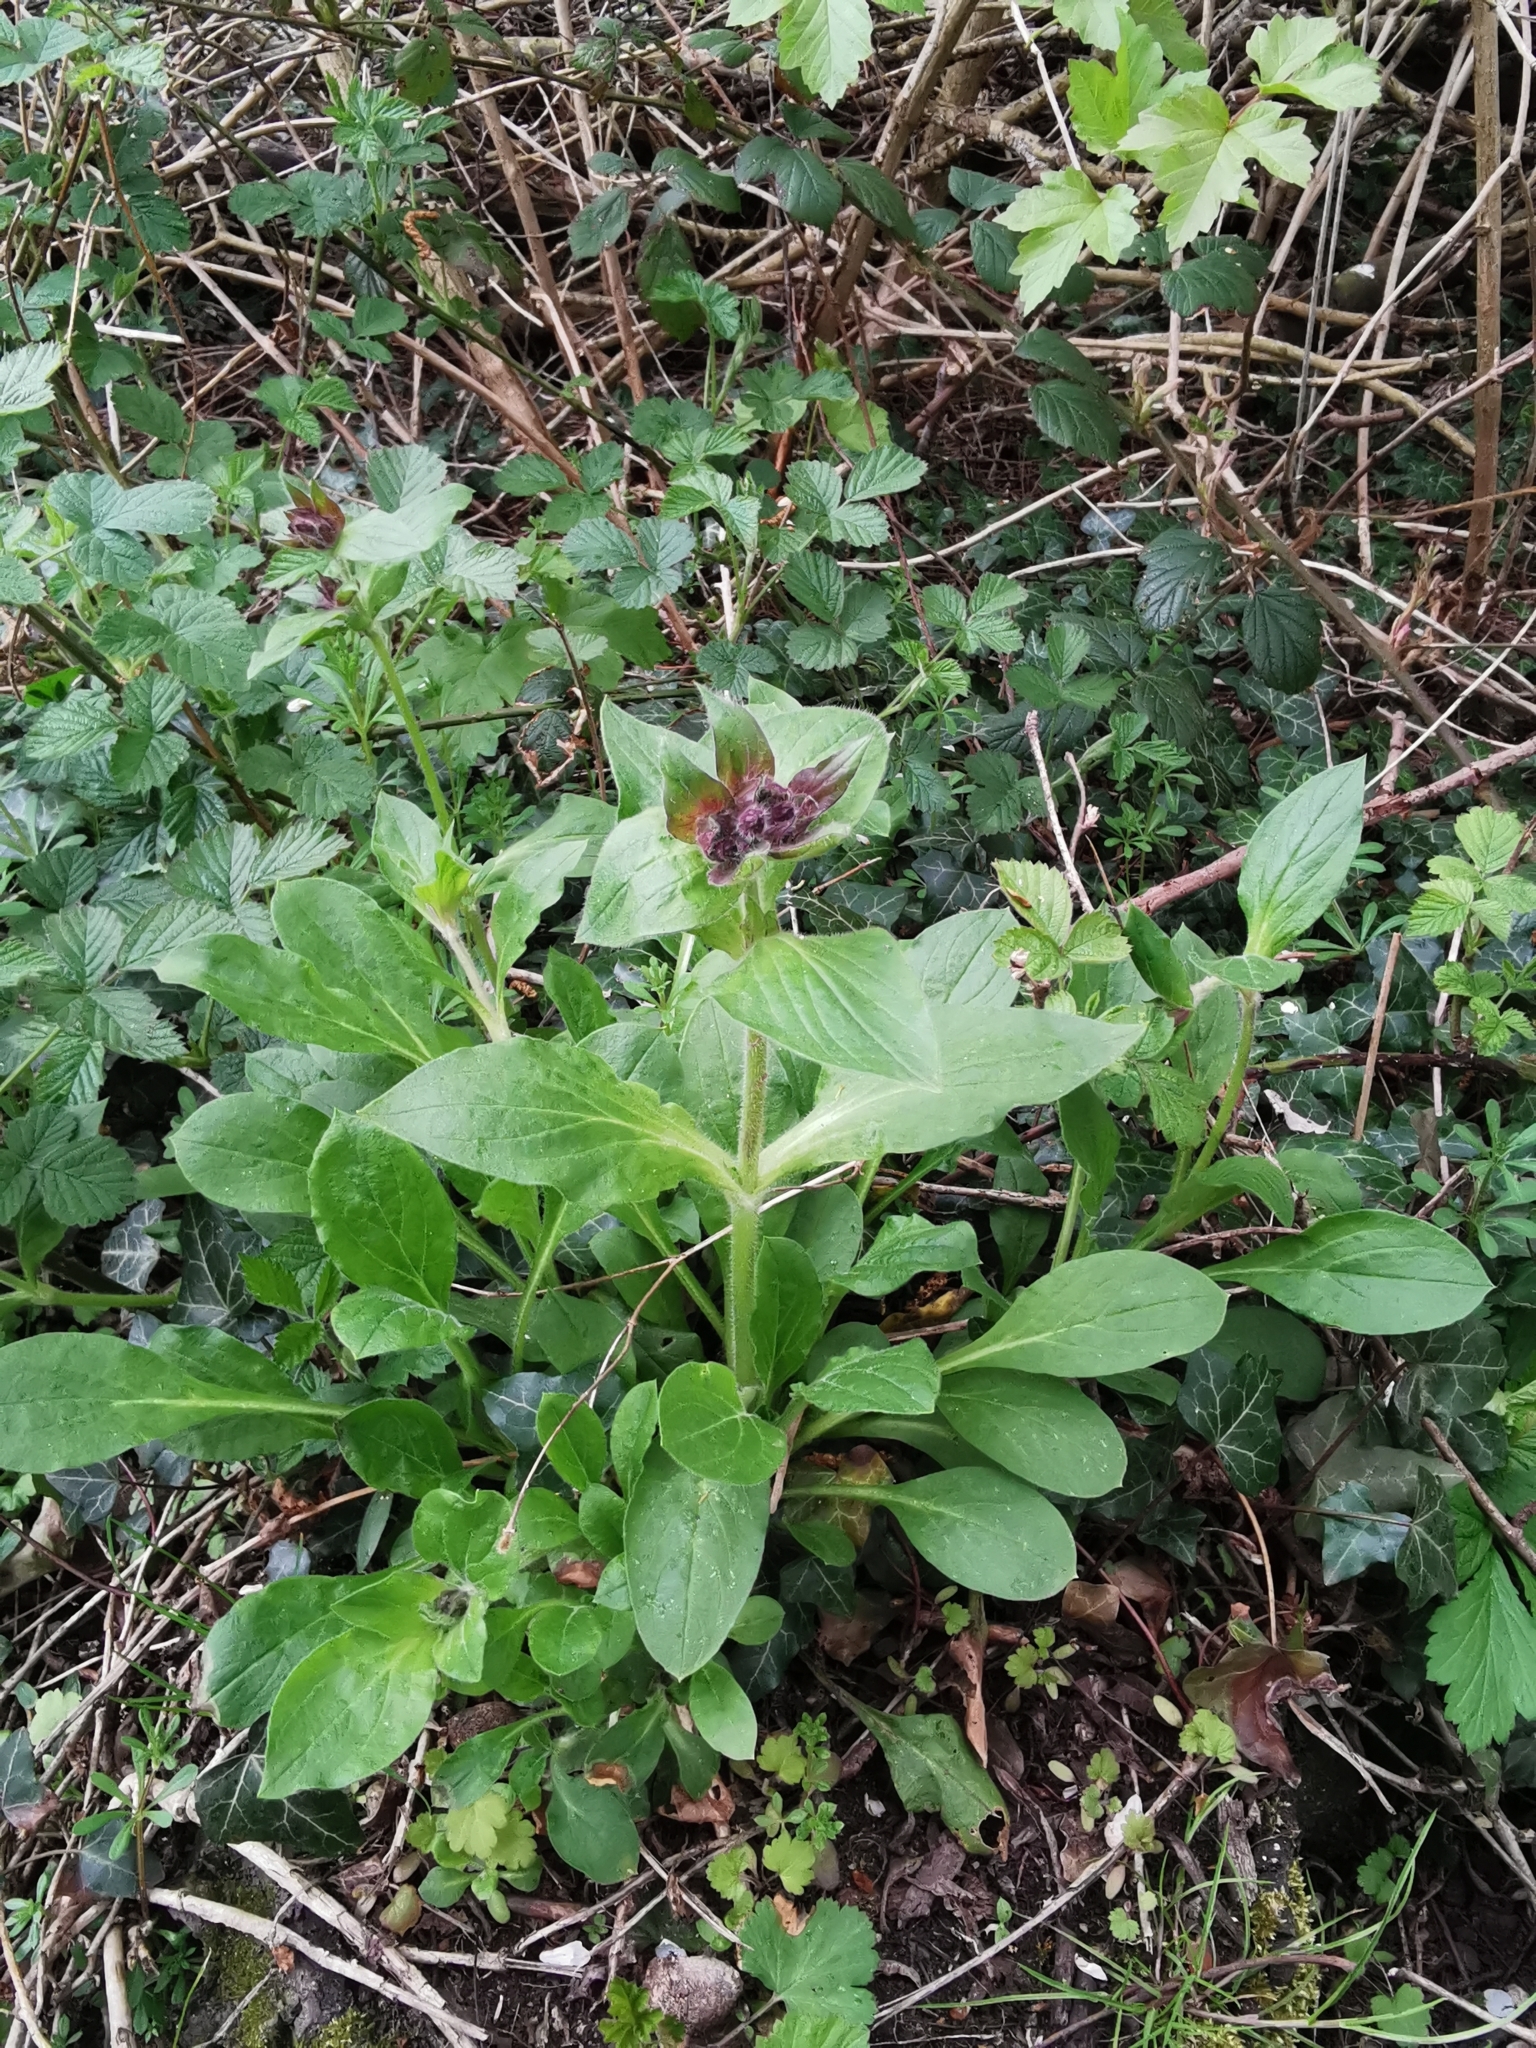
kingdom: Plantae
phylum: Tracheophyta
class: Magnoliopsida
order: Caryophyllales
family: Caryophyllaceae
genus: Silene
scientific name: Silene dioica
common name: Red campion
